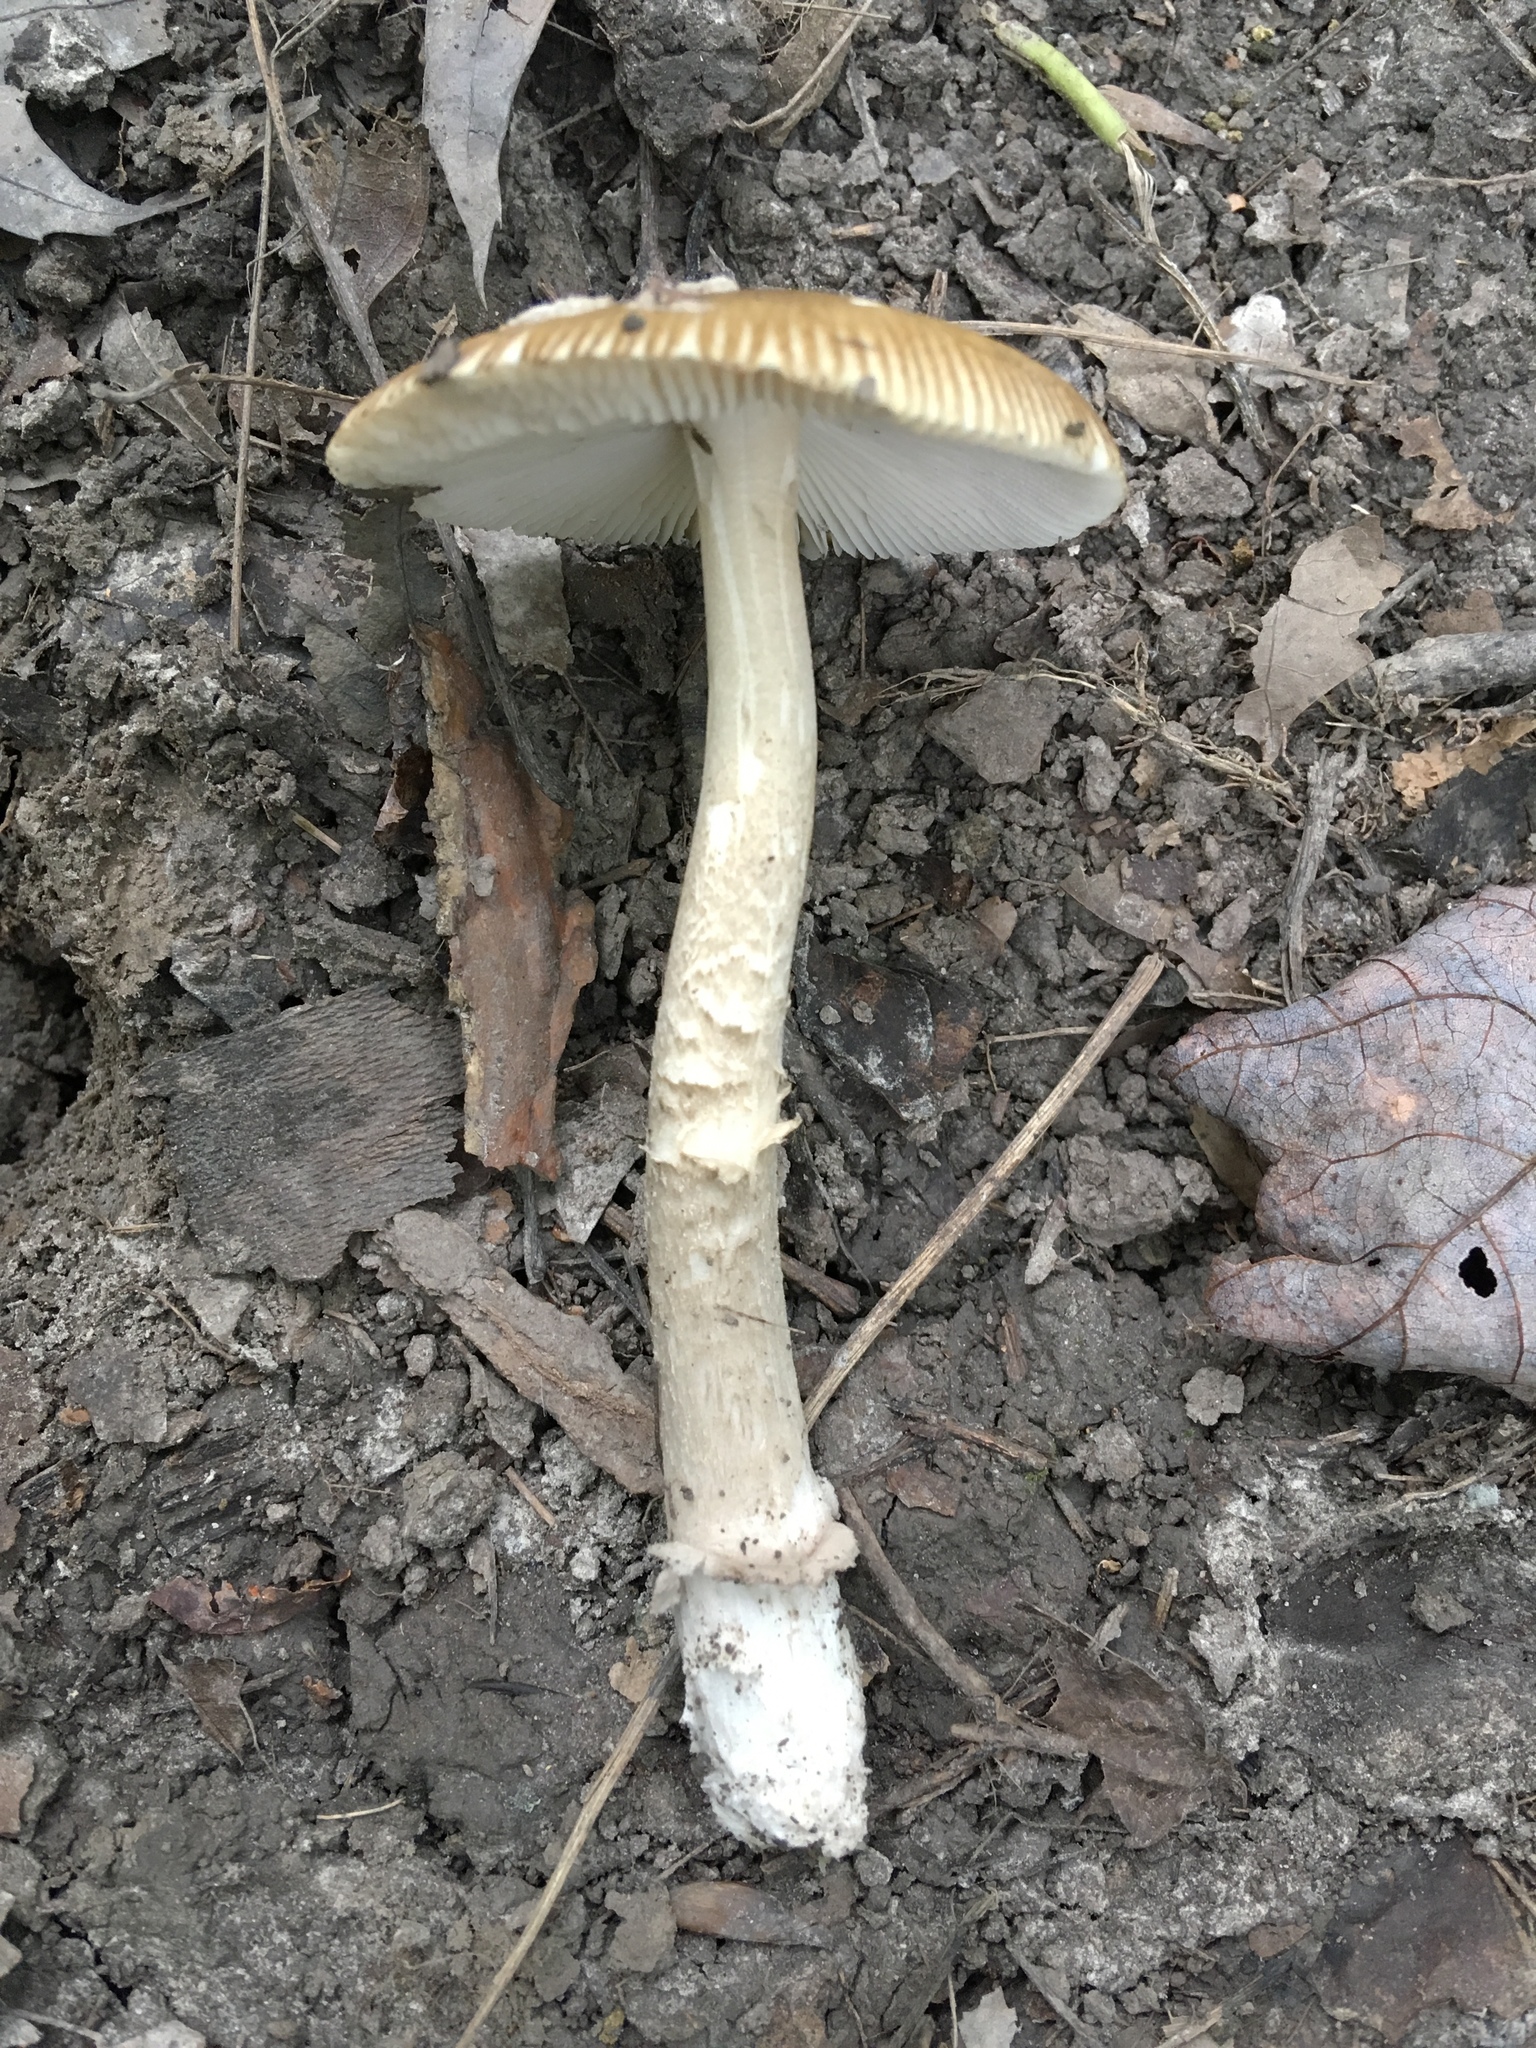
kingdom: Fungi
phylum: Basidiomycota
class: Agaricomycetes
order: Agaricales
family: Amanitaceae
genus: Amanita
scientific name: Amanita rhacopus
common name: Shaggy legged ringless amanita
